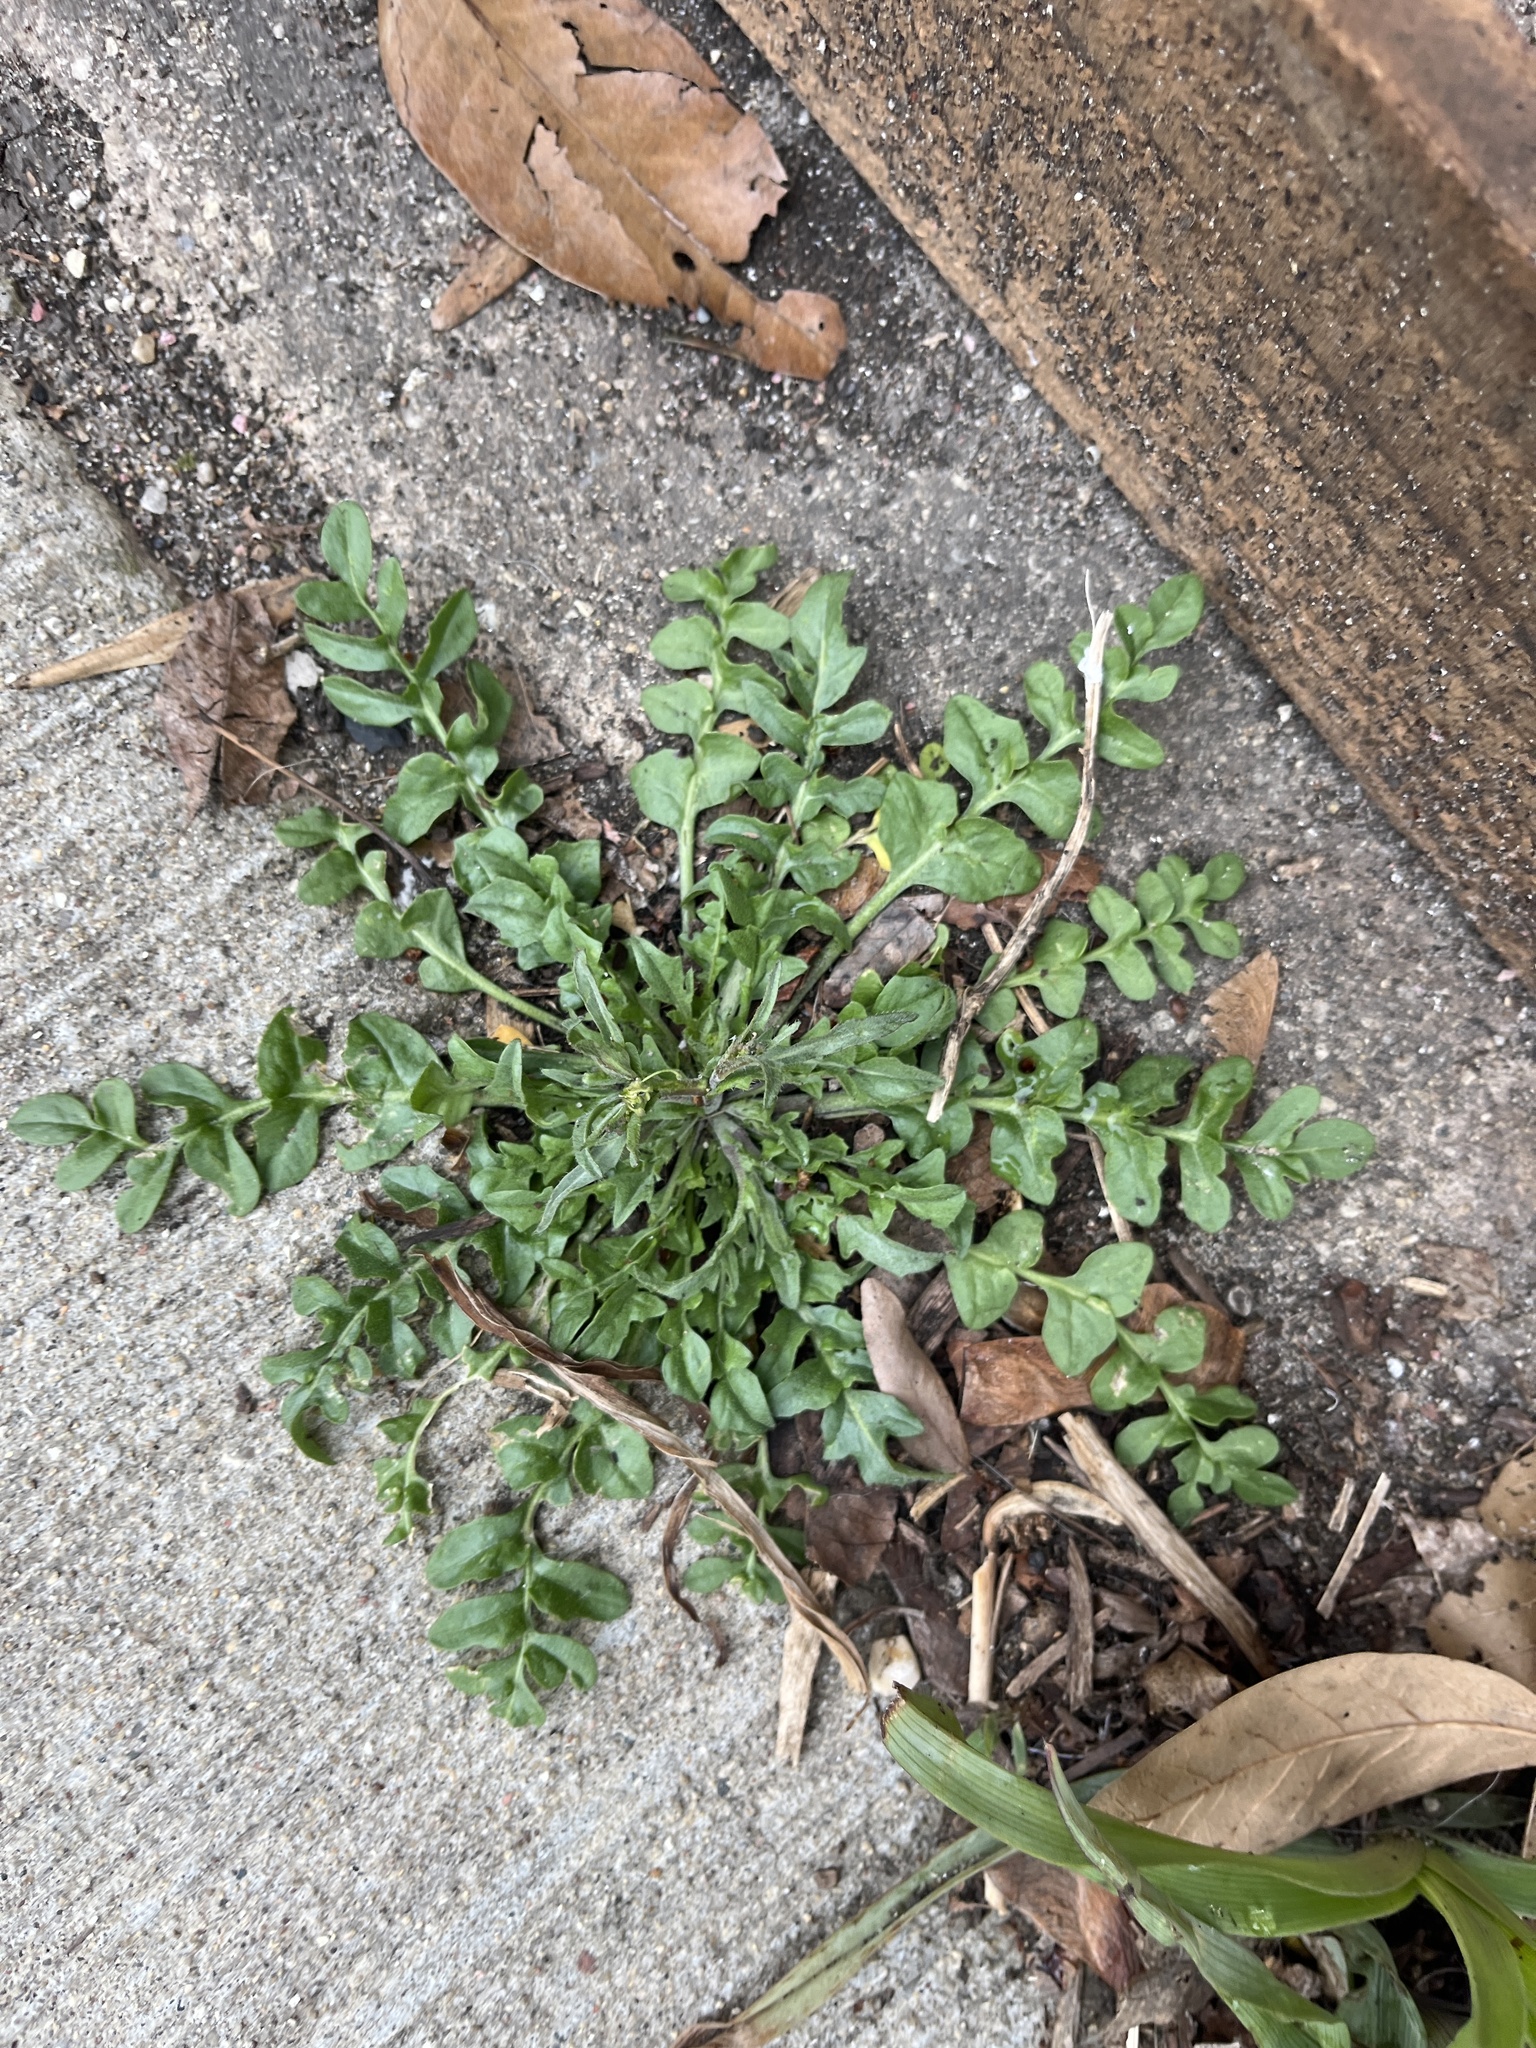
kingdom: Plantae
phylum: Tracheophyta
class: Magnoliopsida
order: Brassicales
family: Brassicaceae
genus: Capsella
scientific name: Capsella bursa-pastoris
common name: Shepherd's purse
